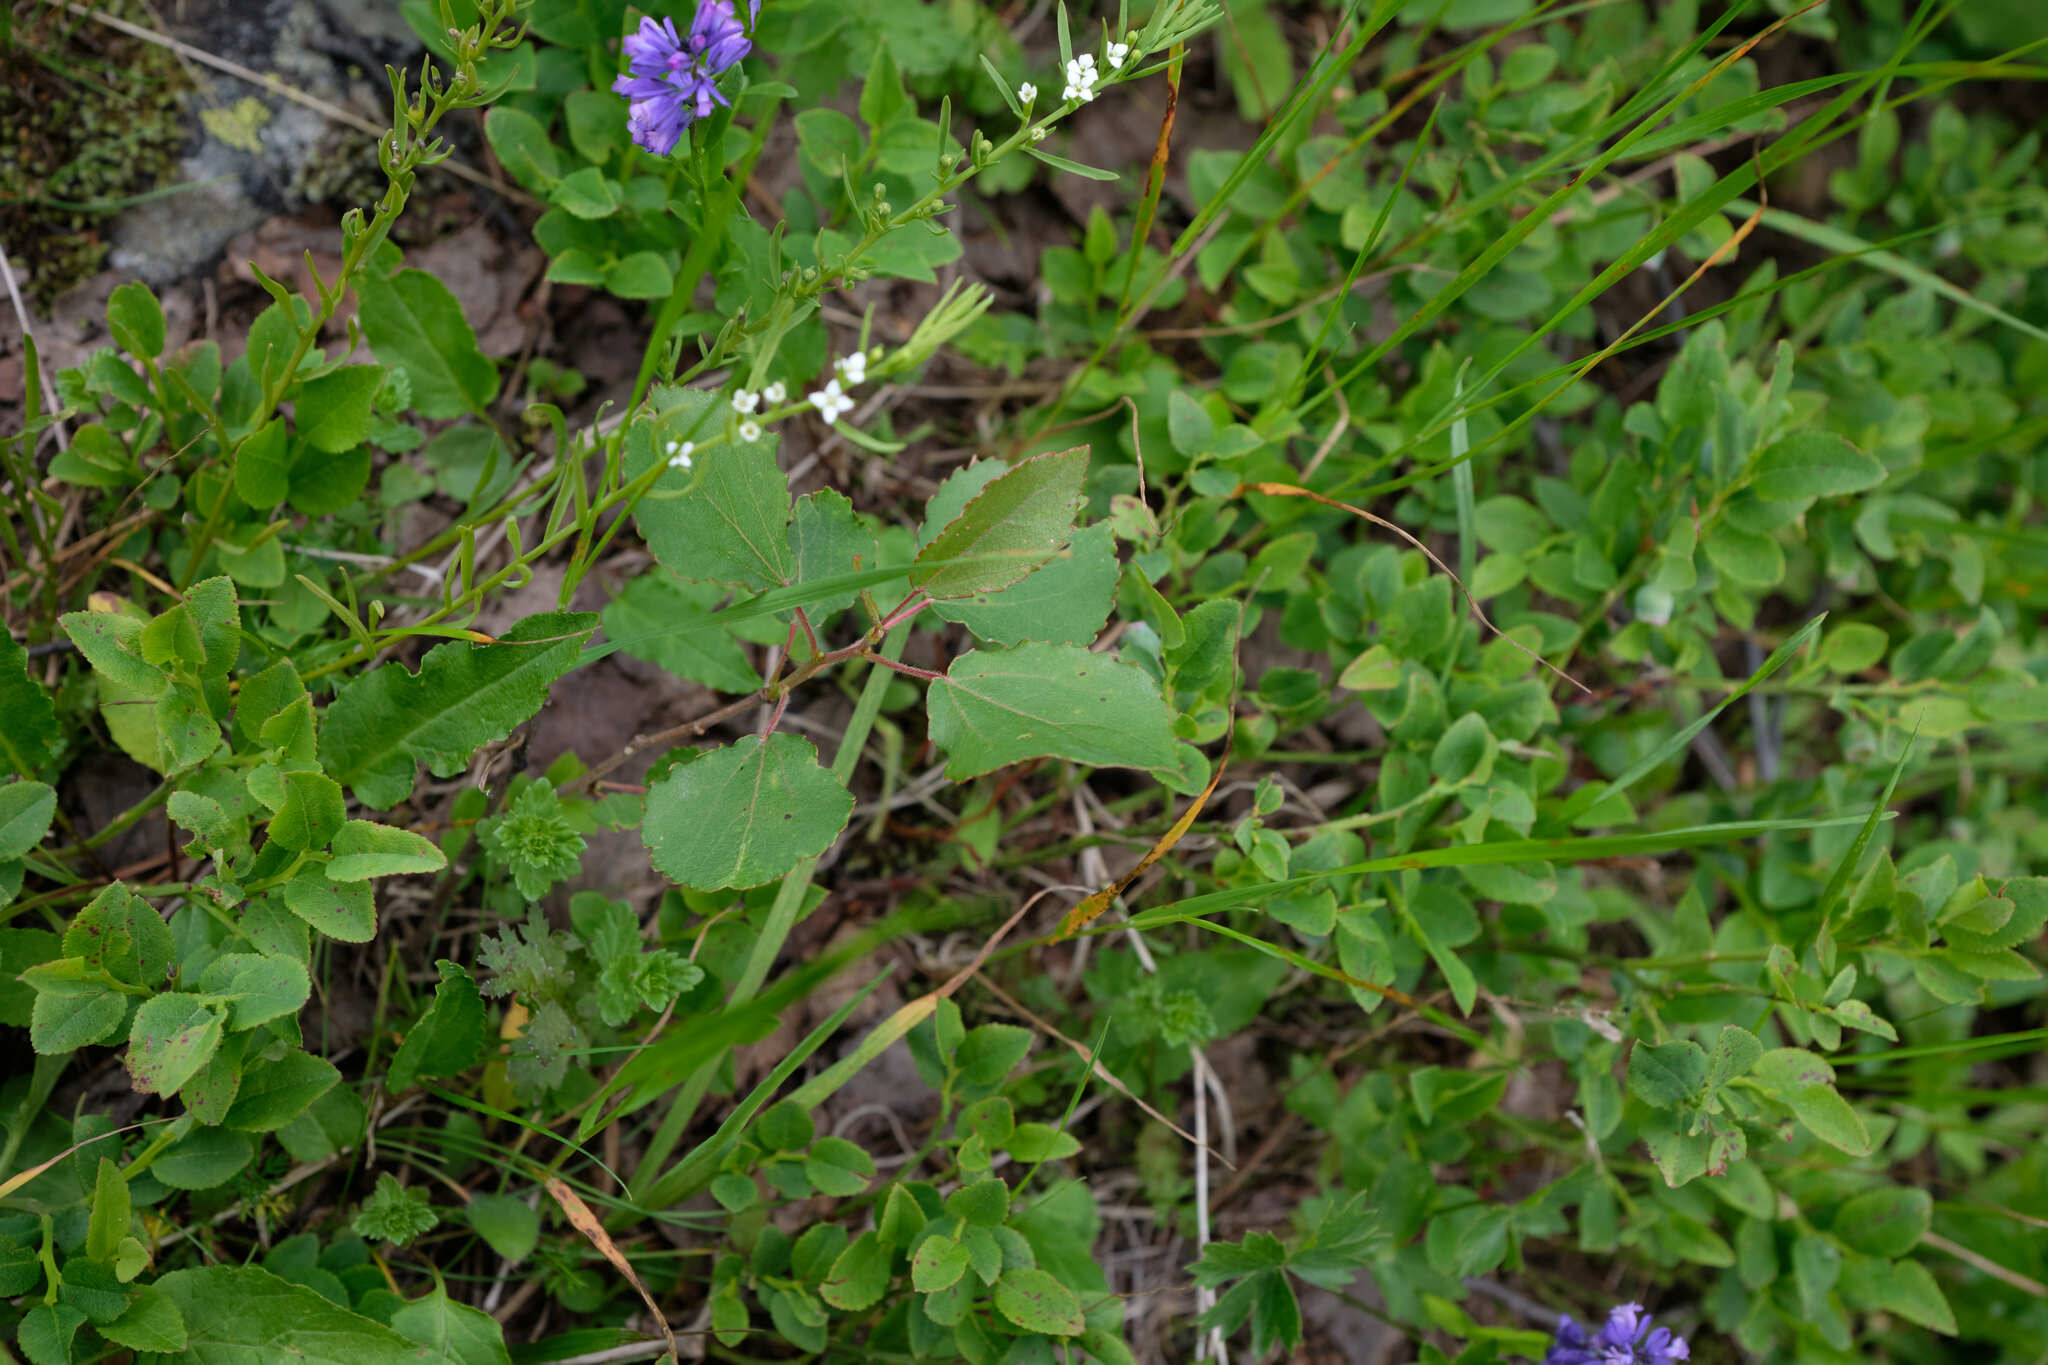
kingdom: Plantae
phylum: Tracheophyta
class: Magnoliopsida
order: Malpighiales
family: Salicaceae
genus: Populus
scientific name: Populus tremula
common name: European aspen
